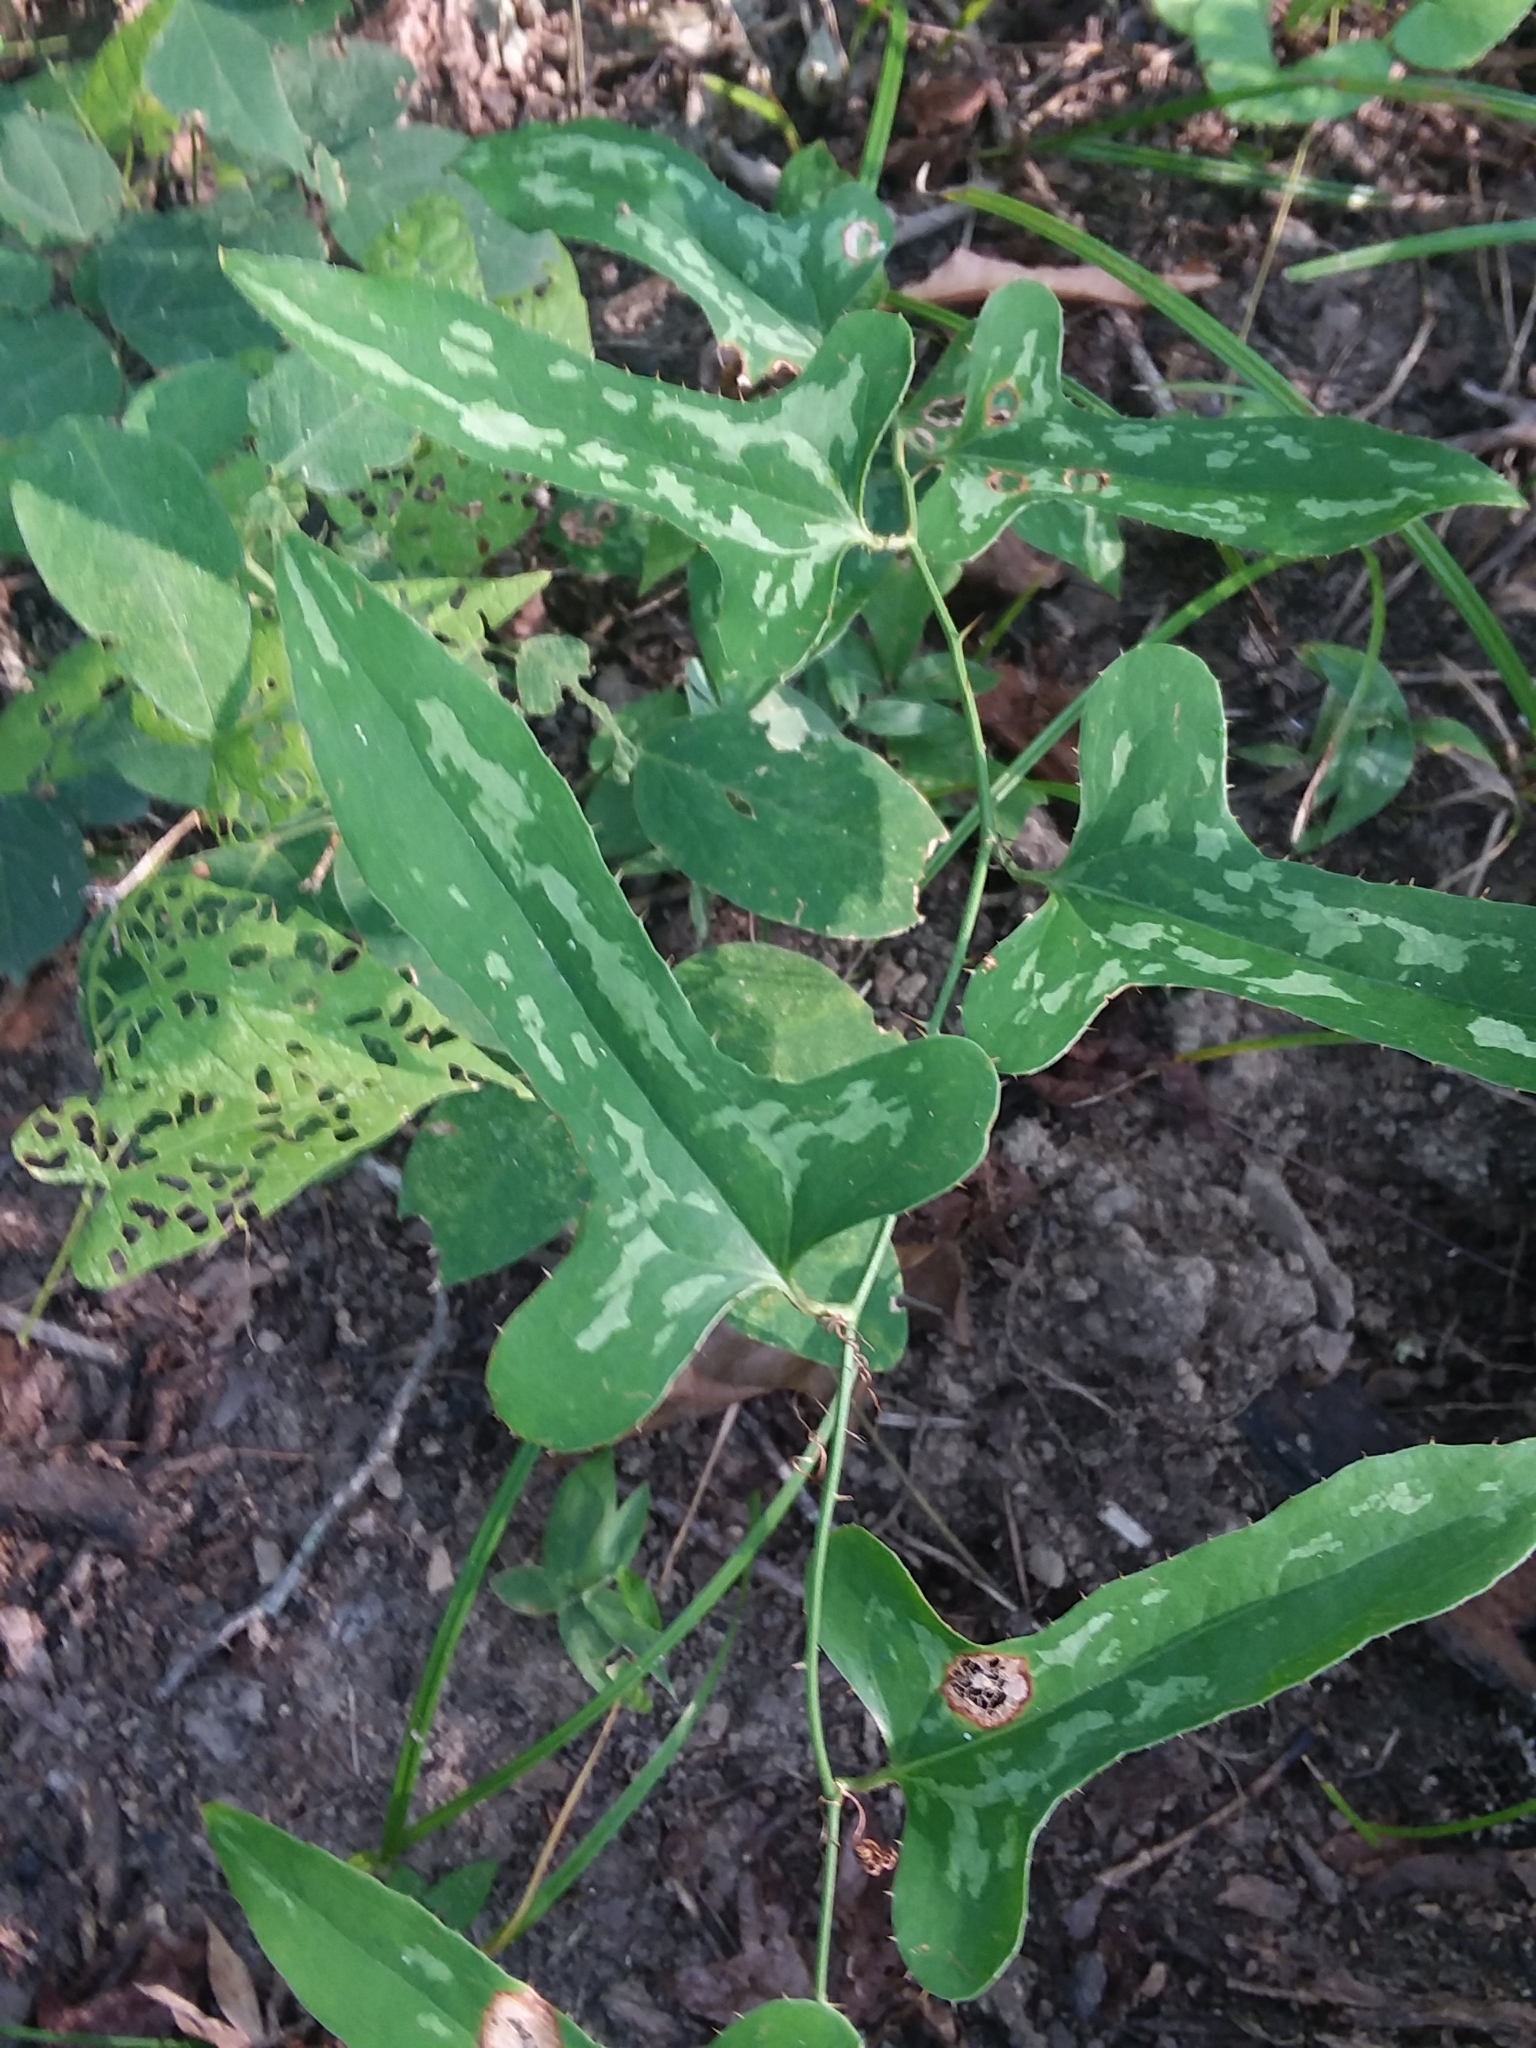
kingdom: Plantae
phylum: Tracheophyta
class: Liliopsida
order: Liliales
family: Smilacaceae
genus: Smilax
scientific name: Smilax bona-nox
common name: Catbrier
